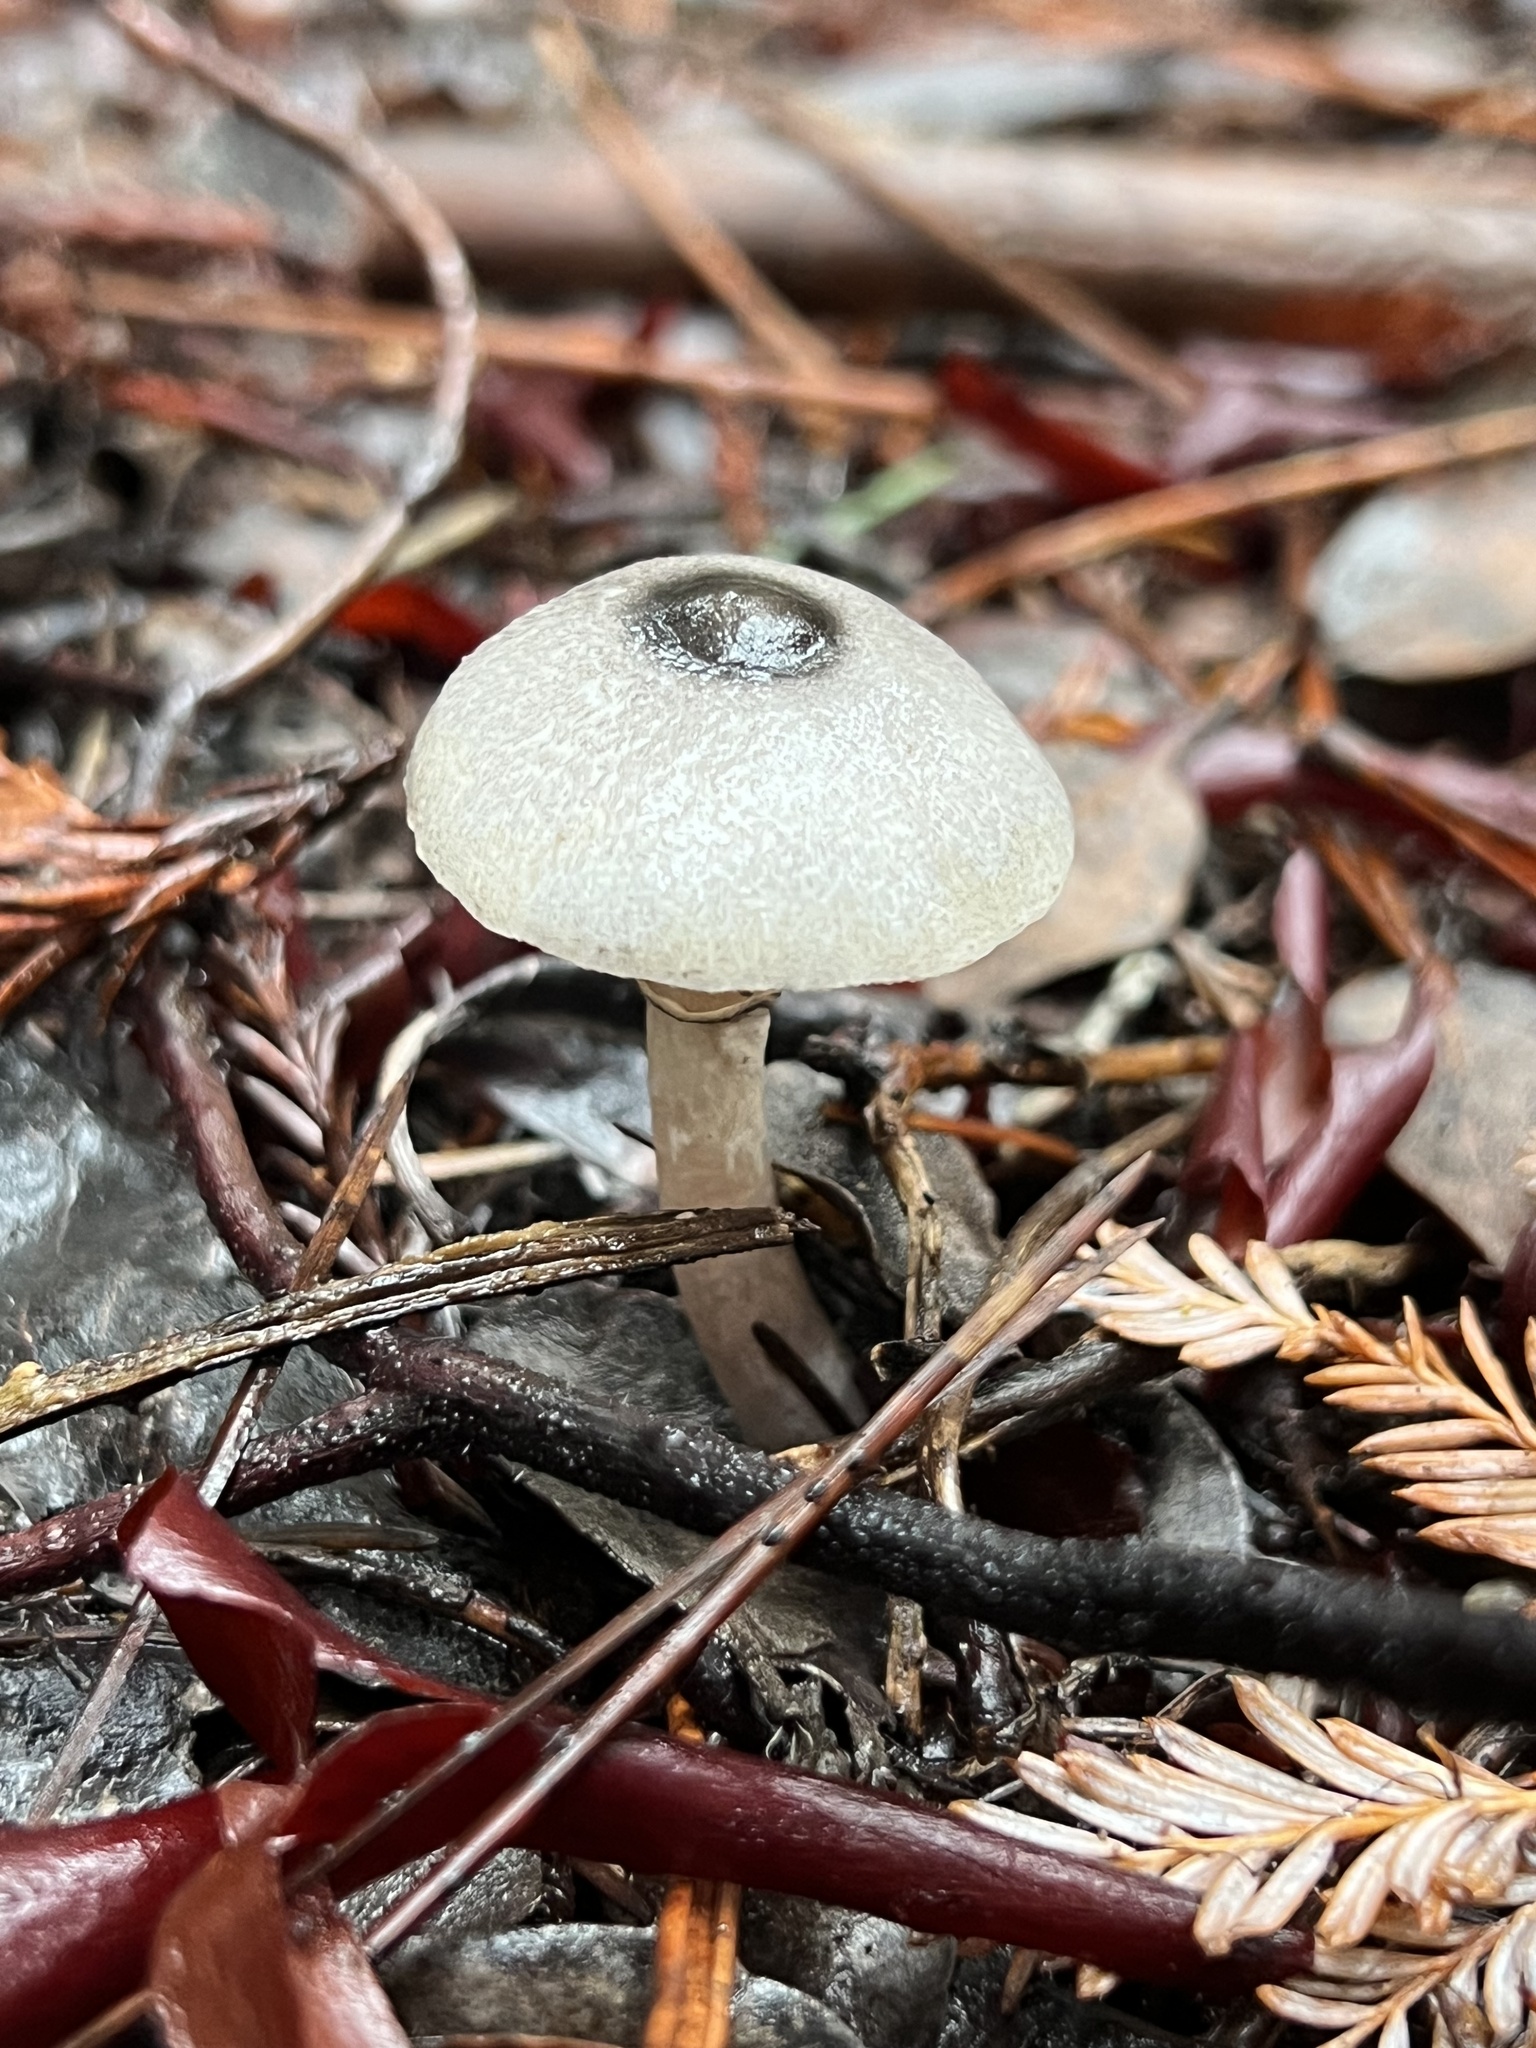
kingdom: Fungi
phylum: Basidiomycota
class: Agaricomycetes
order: Agaricales
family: Agaricaceae
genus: Lepiota
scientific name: Lepiota atrodisca
